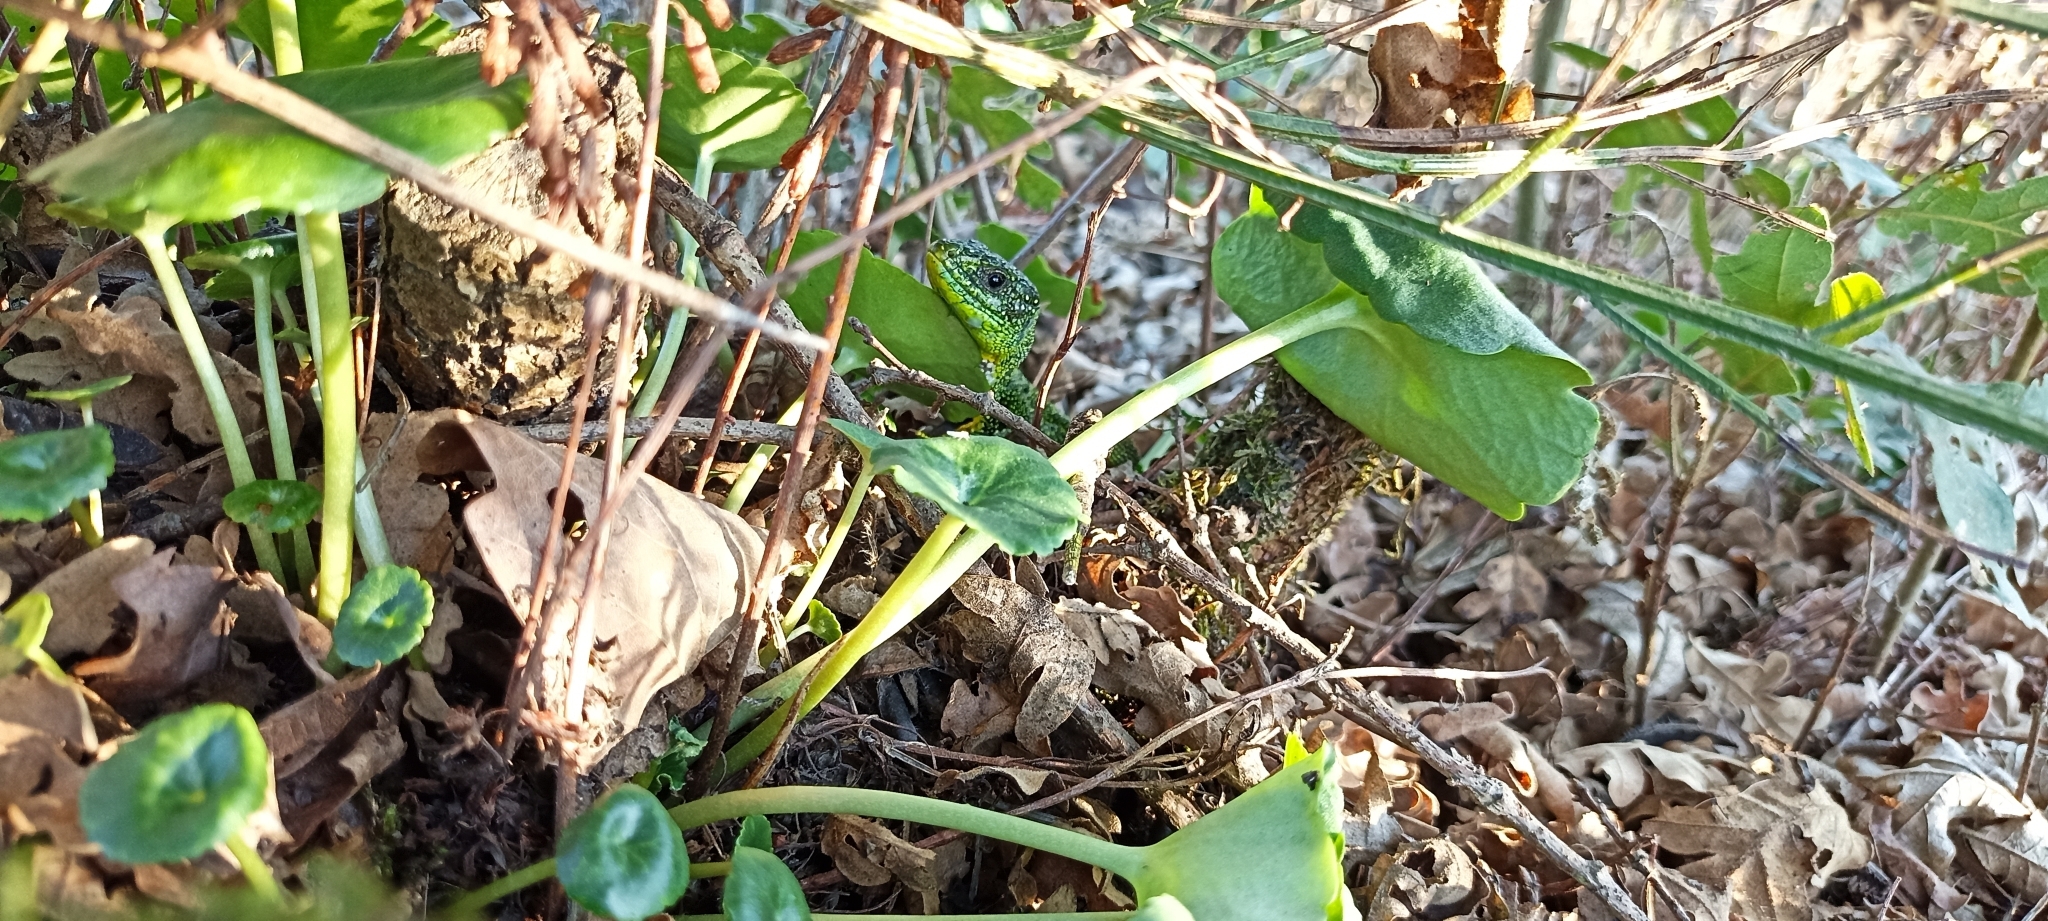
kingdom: Animalia
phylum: Chordata
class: Squamata
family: Lacertidae
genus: Lacerta
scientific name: Lacerta bilineata
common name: Western green lizard
